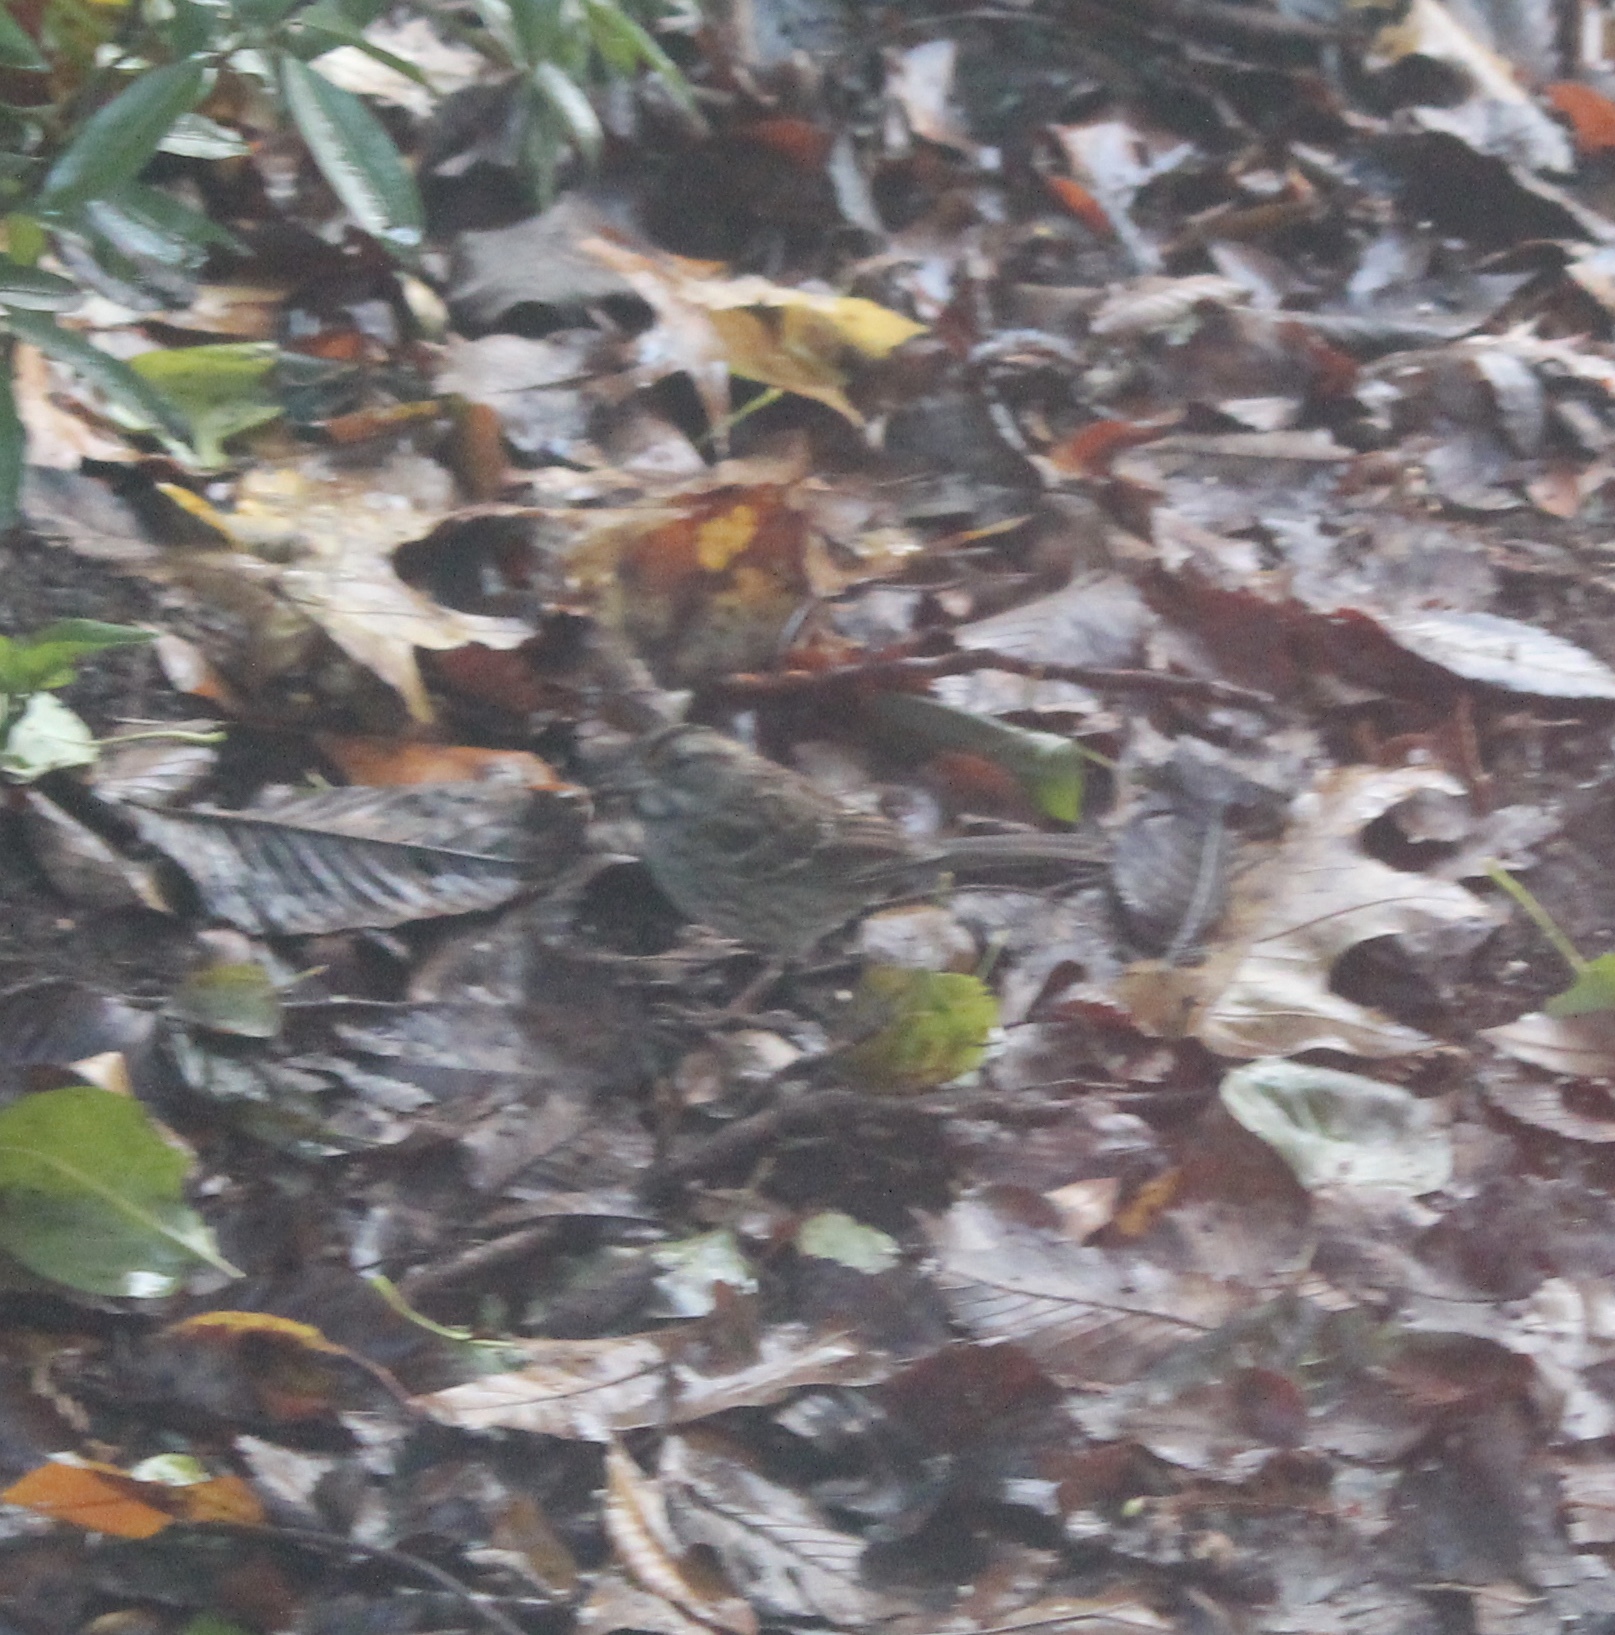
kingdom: Animalia
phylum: Chordata
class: Aves
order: Passeriformes
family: Passerellidae
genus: Zonotrichia
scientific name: Zonotrichia albicollis
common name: White-throated sparrow
